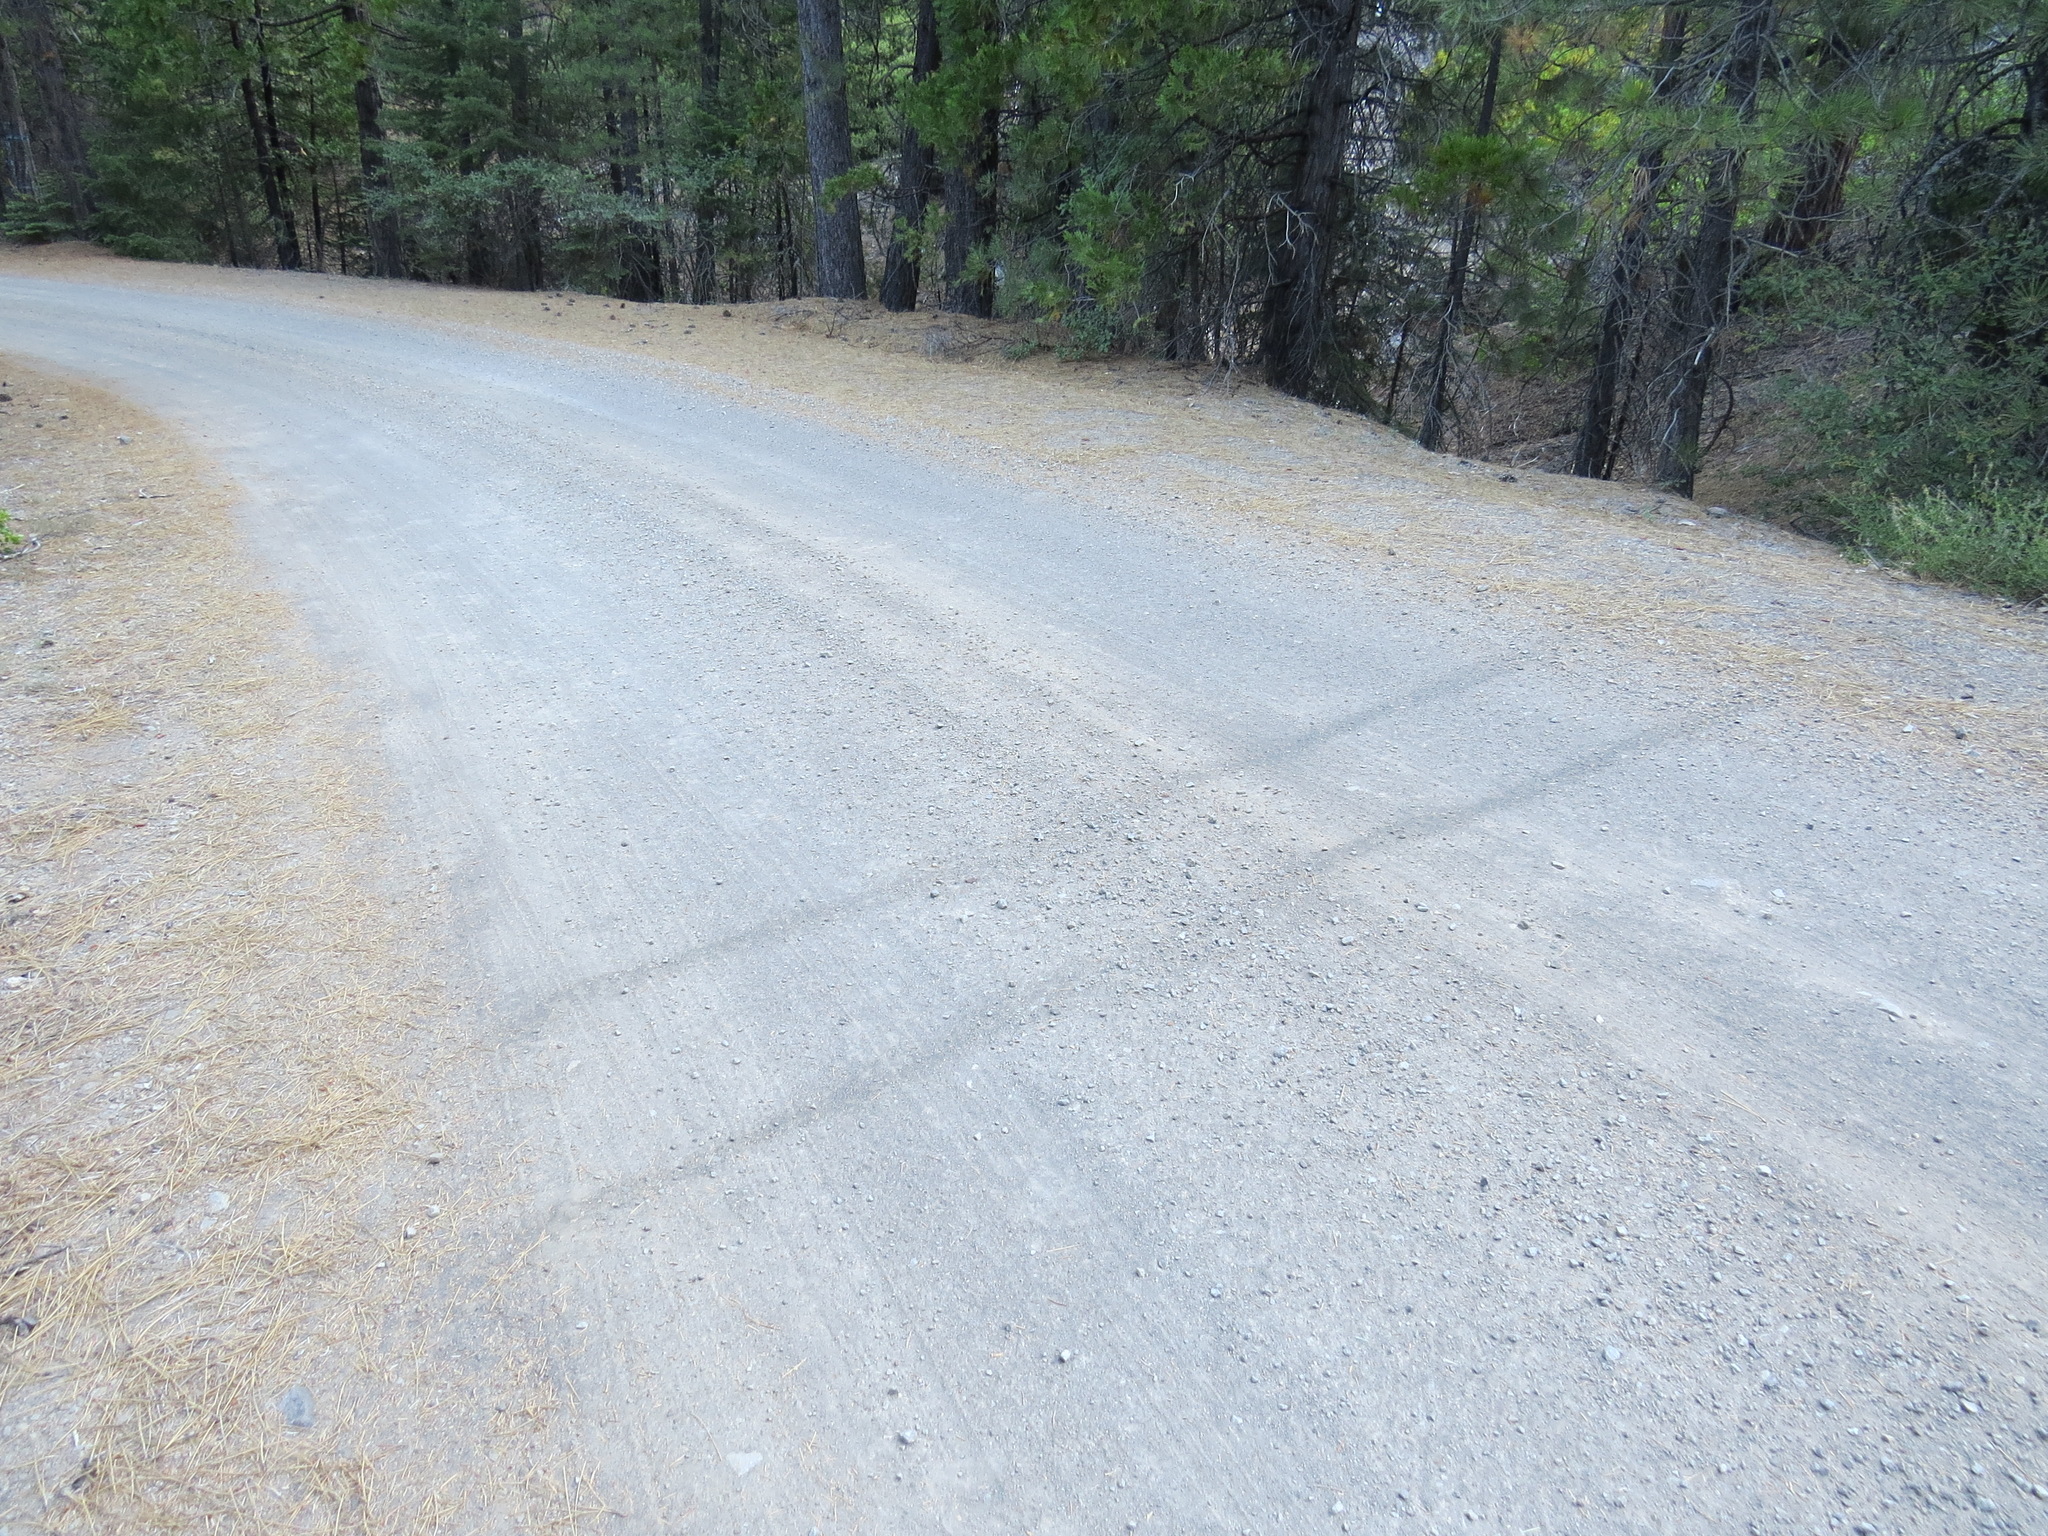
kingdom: Animalia
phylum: Arthropoda
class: Insecta
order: Hymenoptera
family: Formicidae
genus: Liometopum
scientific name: Liometopum occidentale
